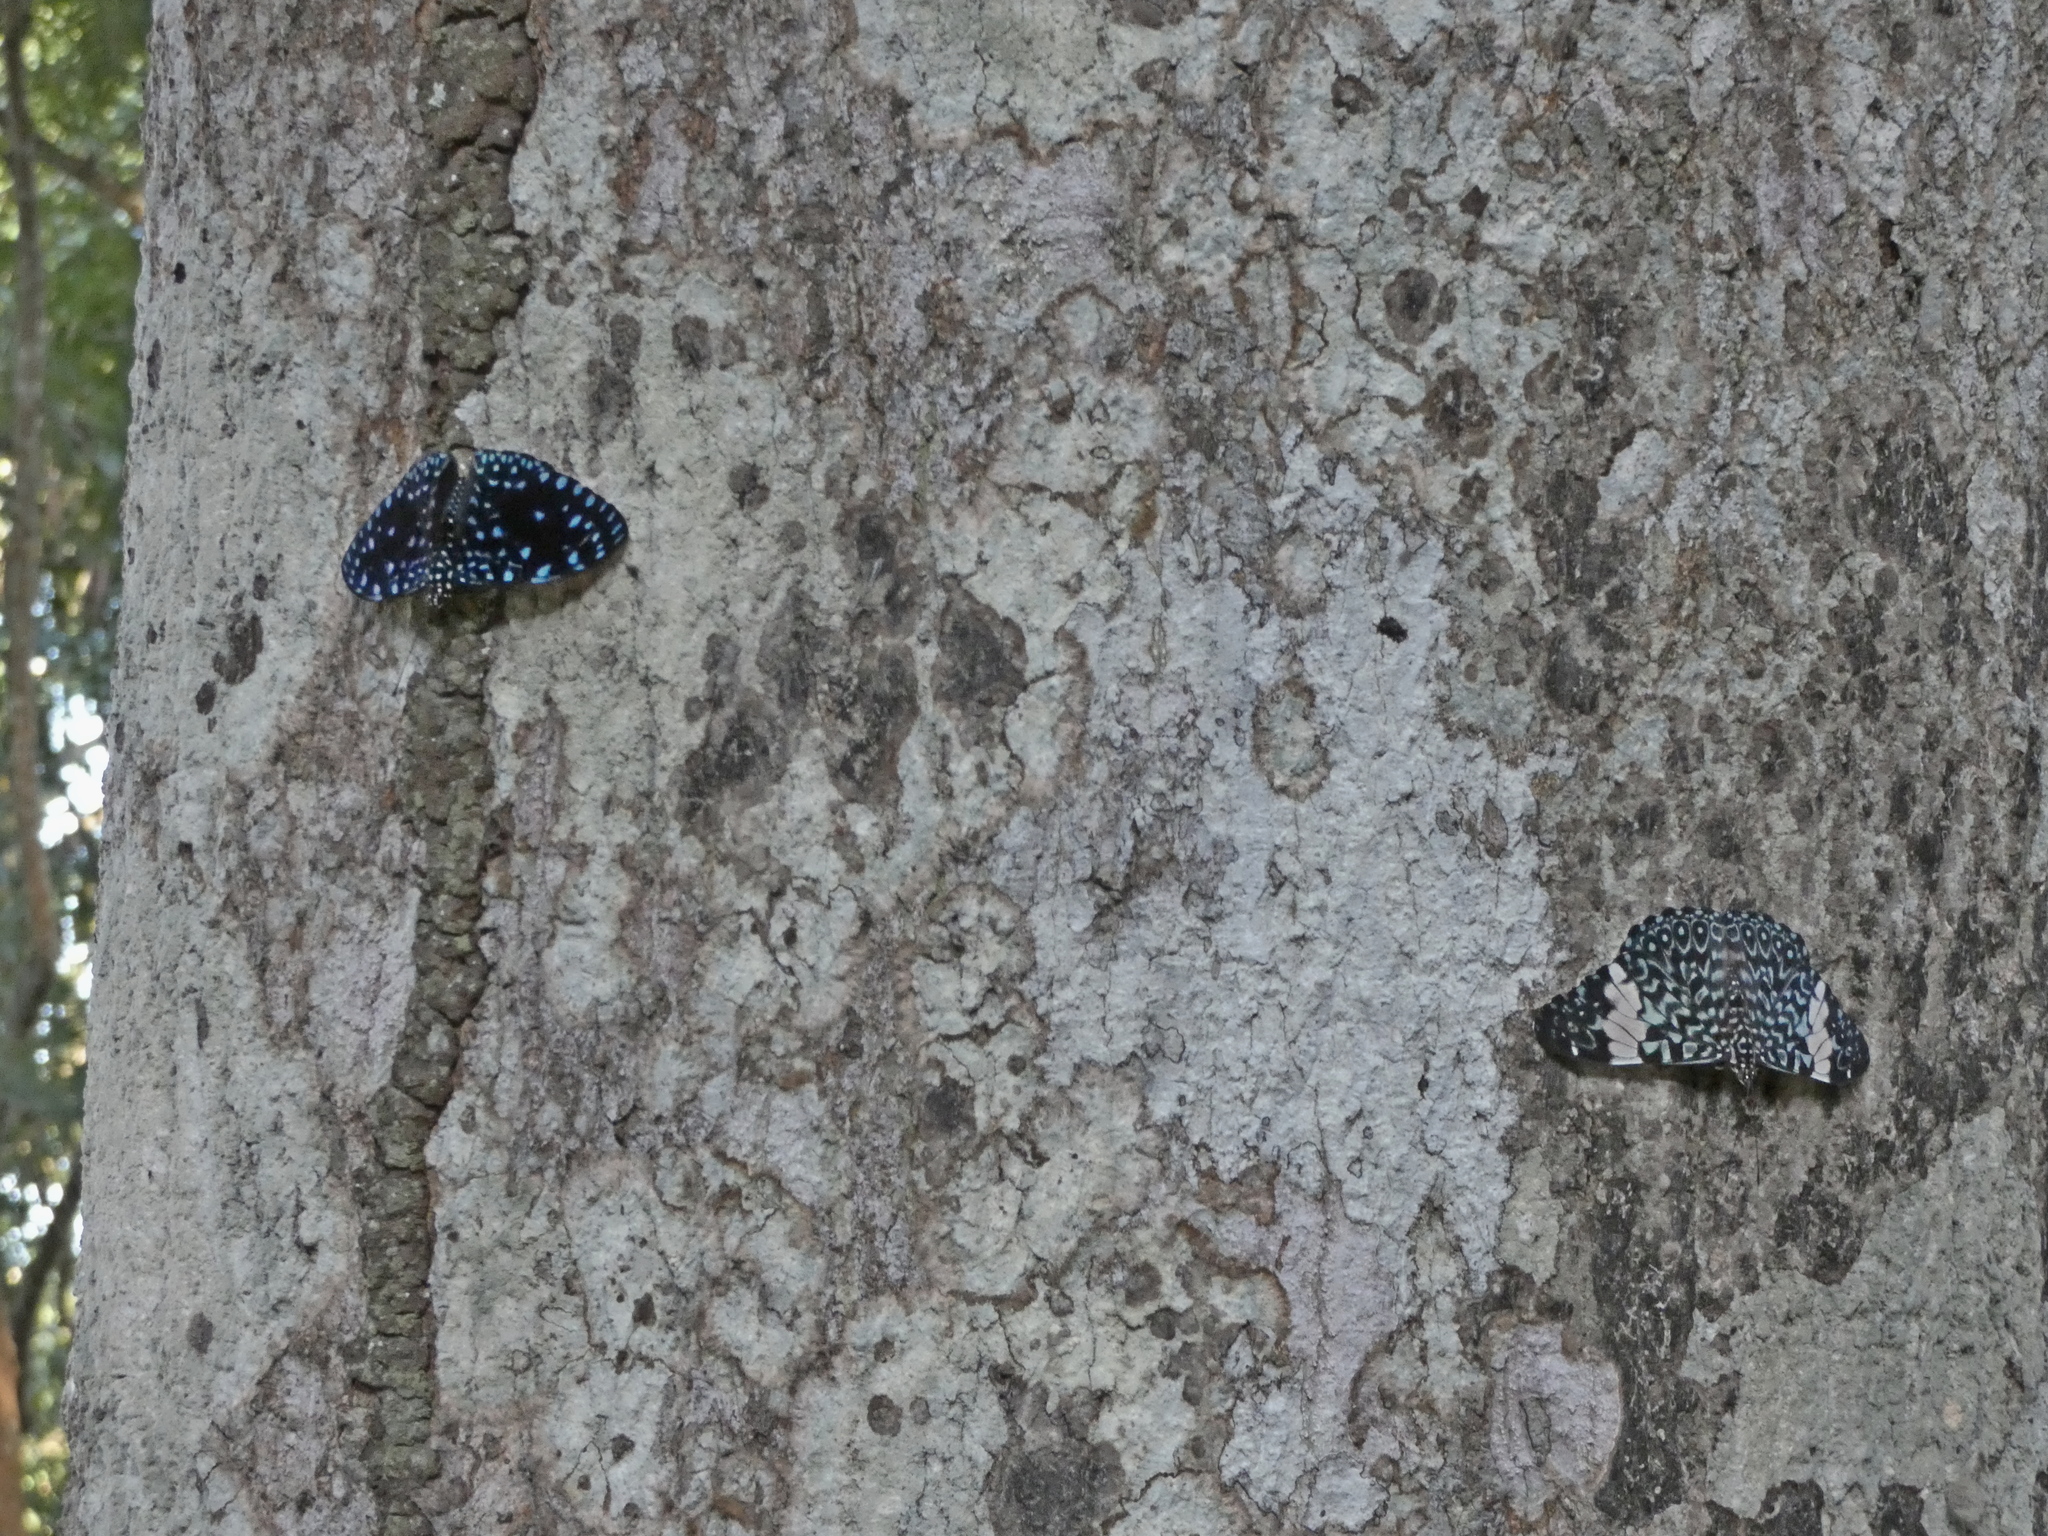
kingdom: Animalia
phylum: Arthropoda
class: Insecta
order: Lepidoptera
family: Nymphalidae
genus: Hamadryas
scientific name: Hamadryas laodamia
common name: Starry night cracker
